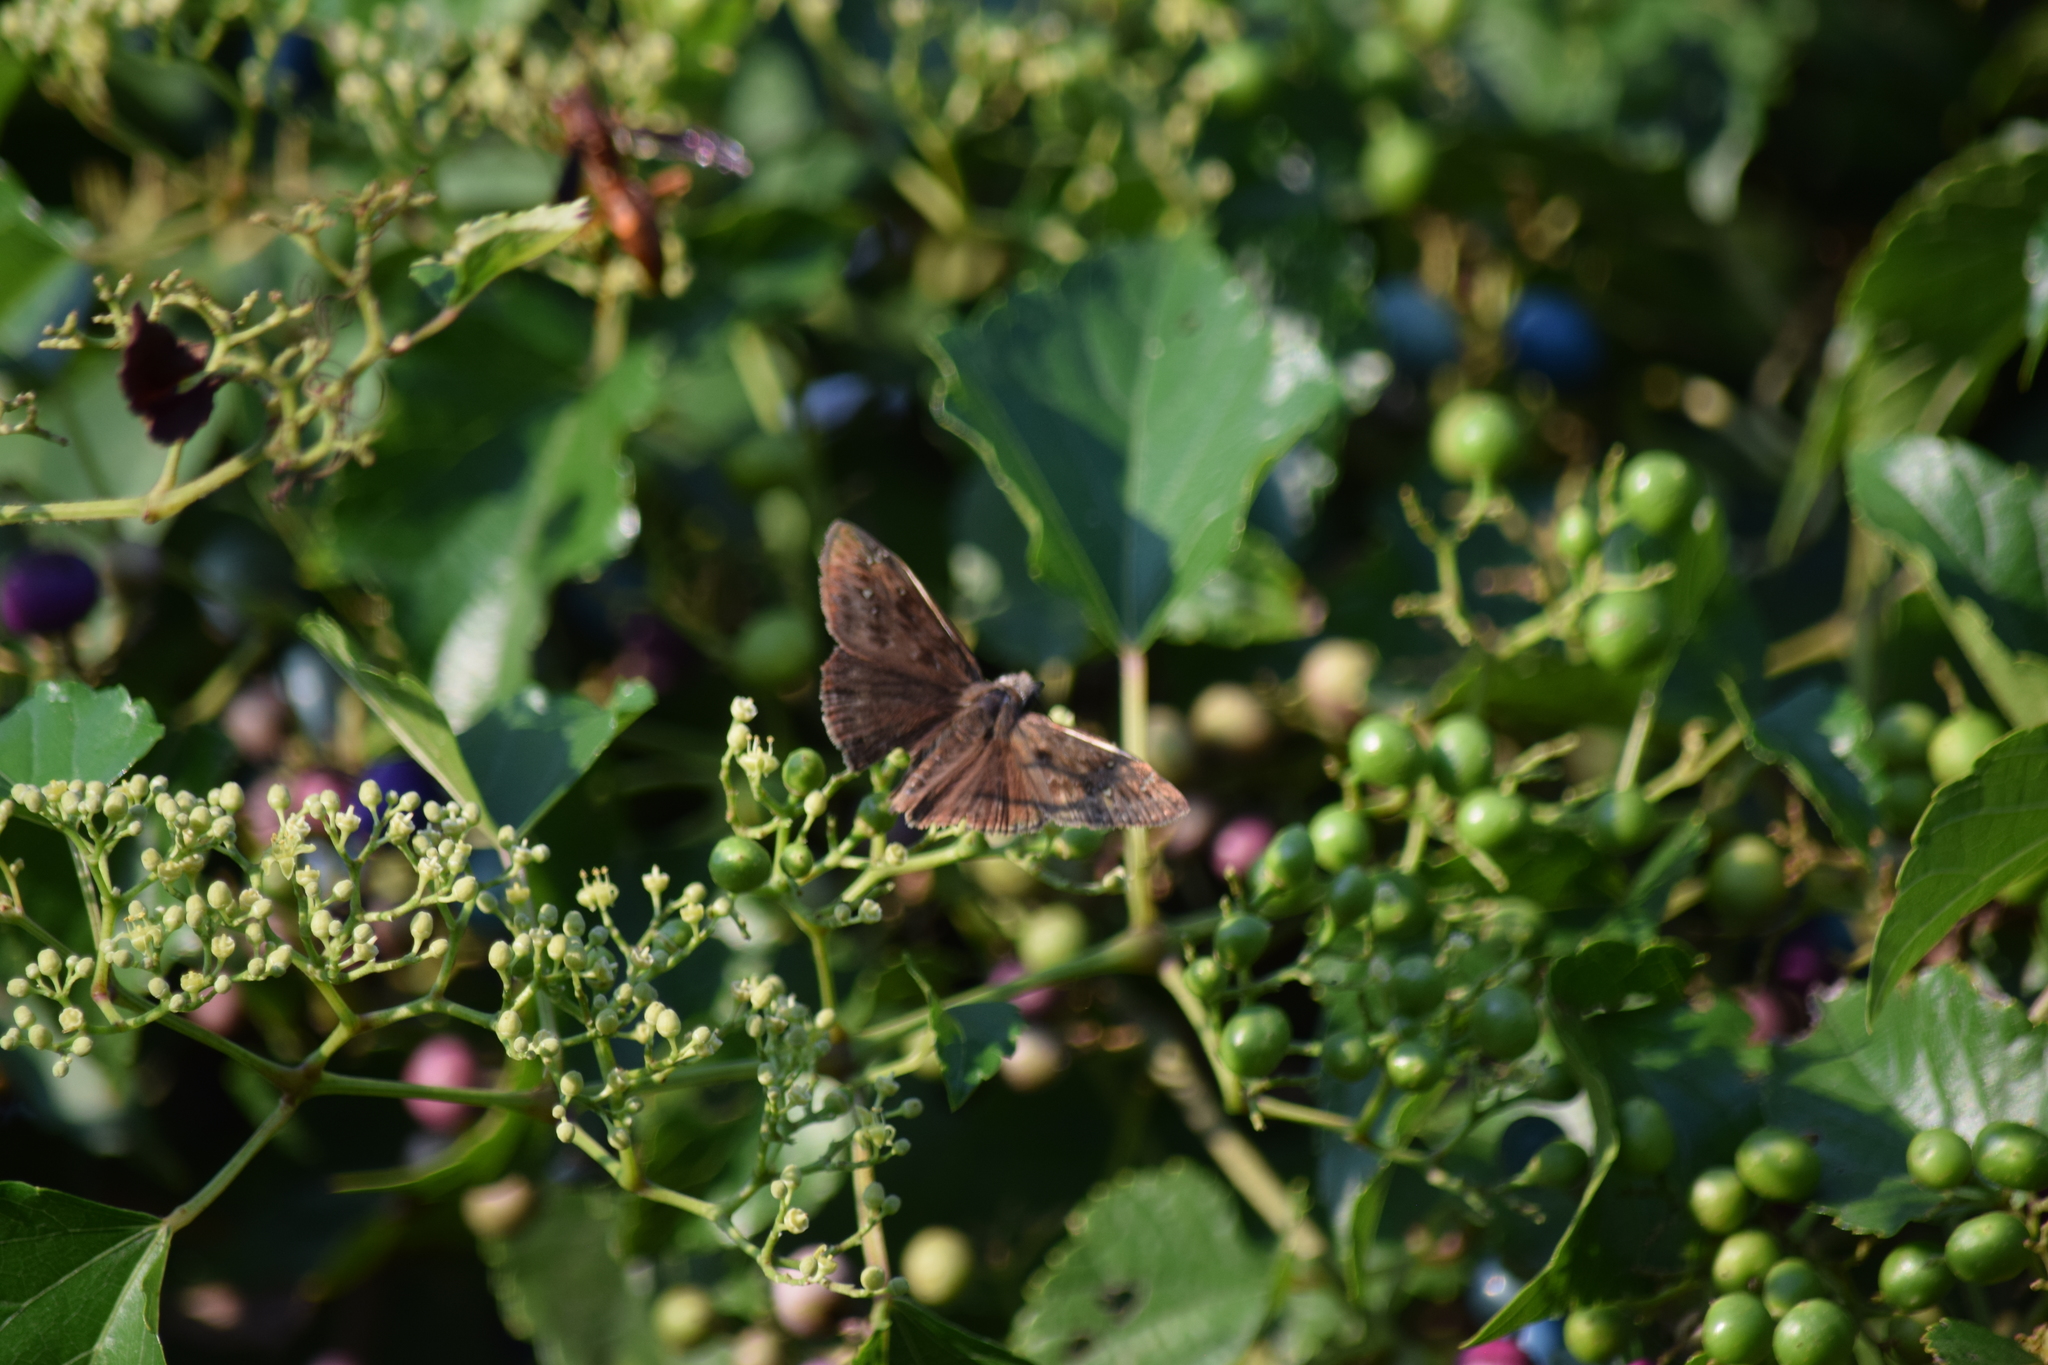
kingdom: Animalia
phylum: Arthropoda
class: Insecta
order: Lepidoptera
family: Hesperiidae
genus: Erynnis
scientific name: Erynnis horatius
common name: Horace's duskywing
